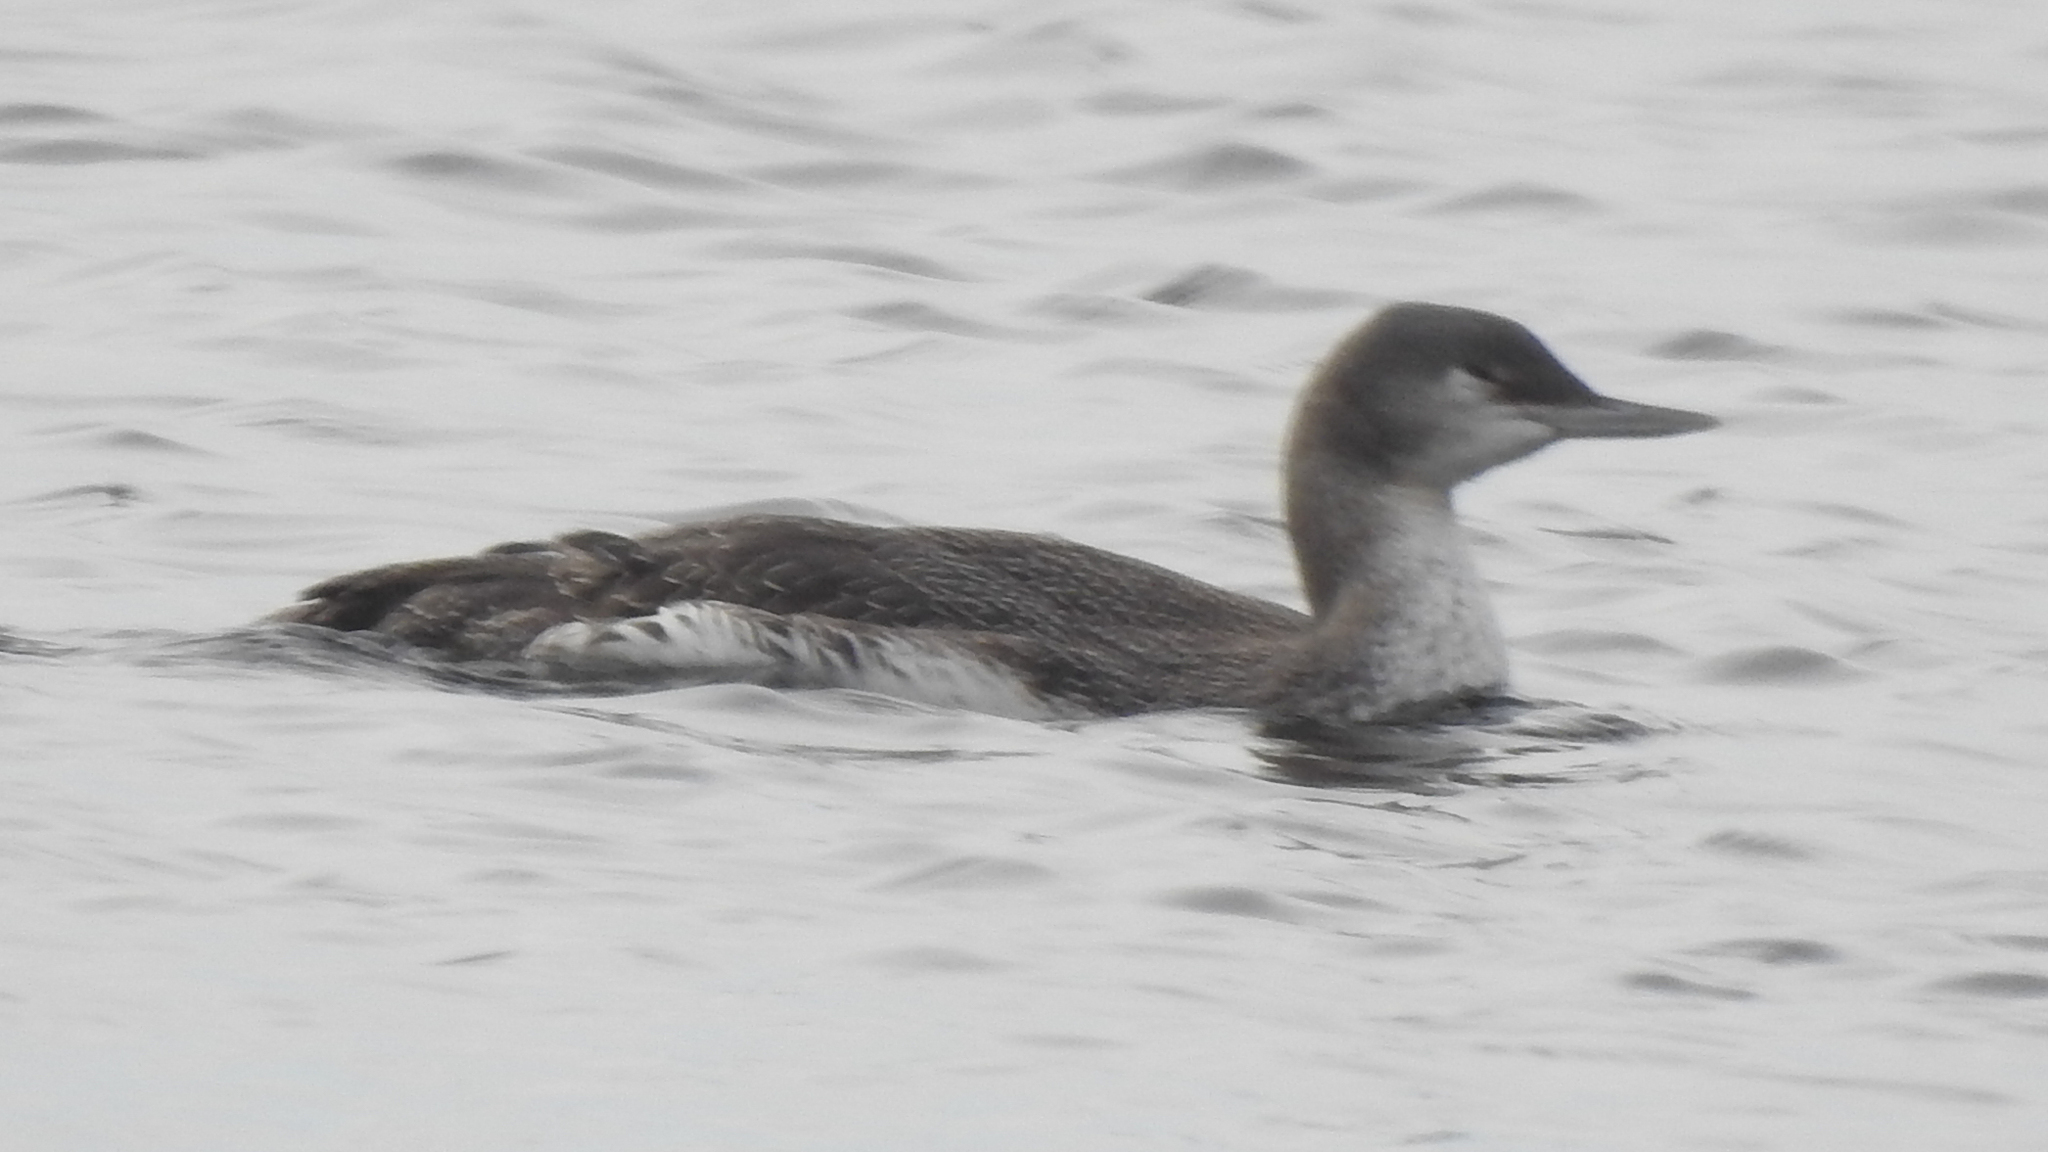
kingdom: Animalia
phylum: Chordata
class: Aves
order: Gaviiformes
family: Gaviidae
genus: Gavia
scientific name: Gavia stellata
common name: Red-throated loon
